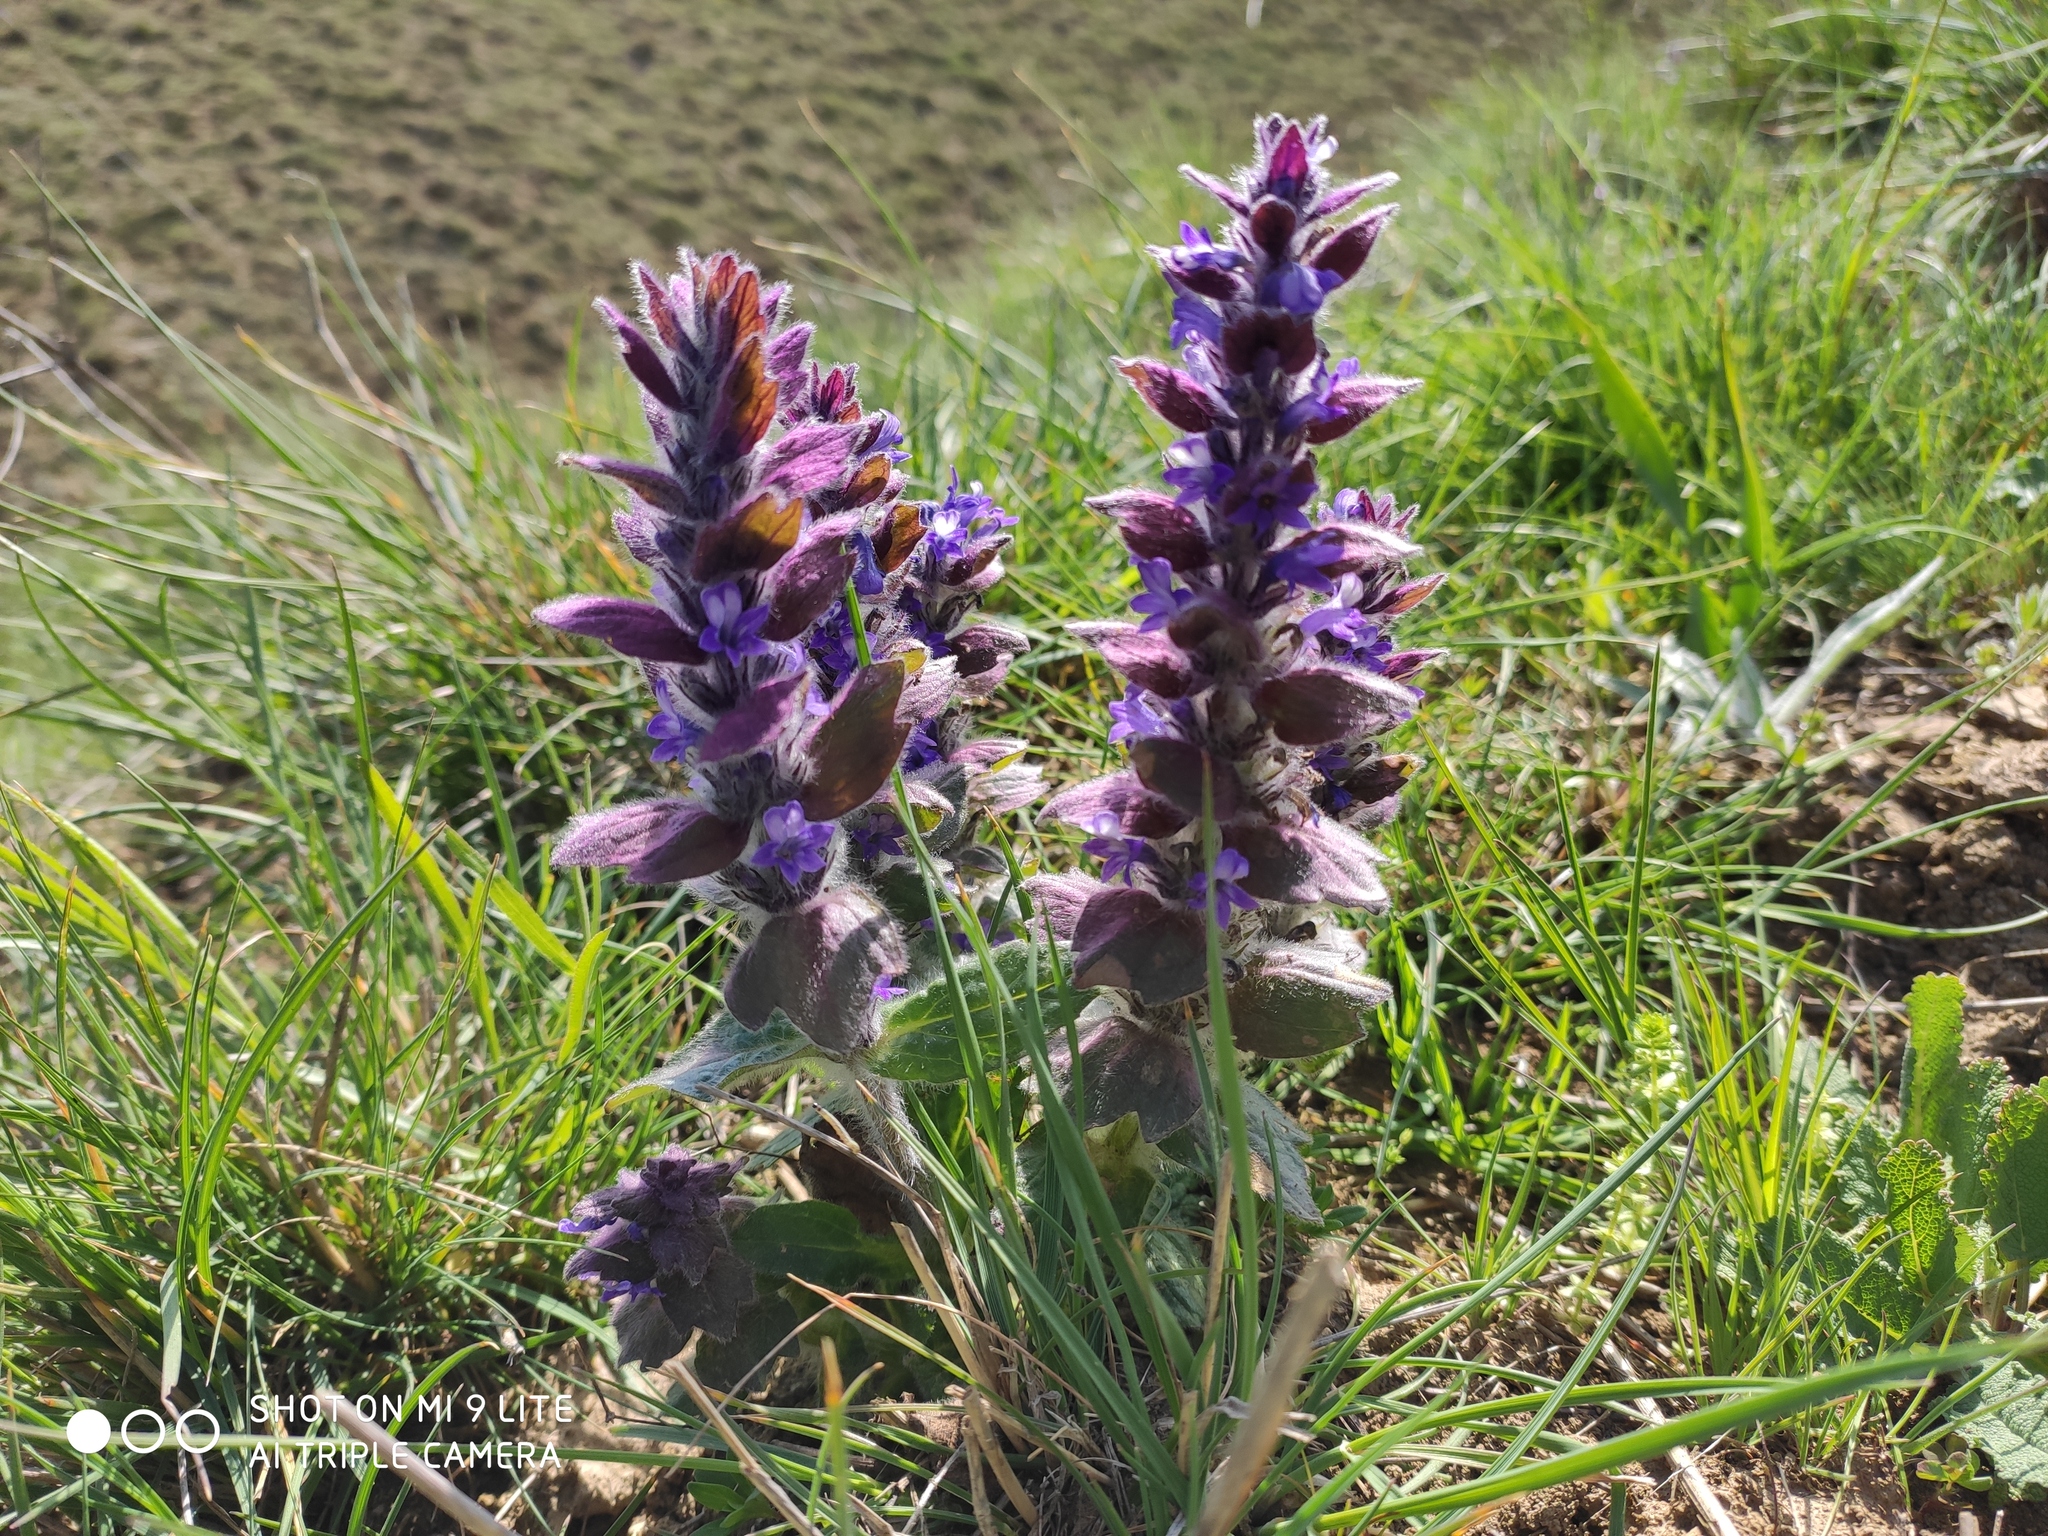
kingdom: Plantae
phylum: Tracheophyta
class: Magnoliopsida
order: Lamiales
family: Lamiaceae
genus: Ajuga
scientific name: Ajuga orientalis
